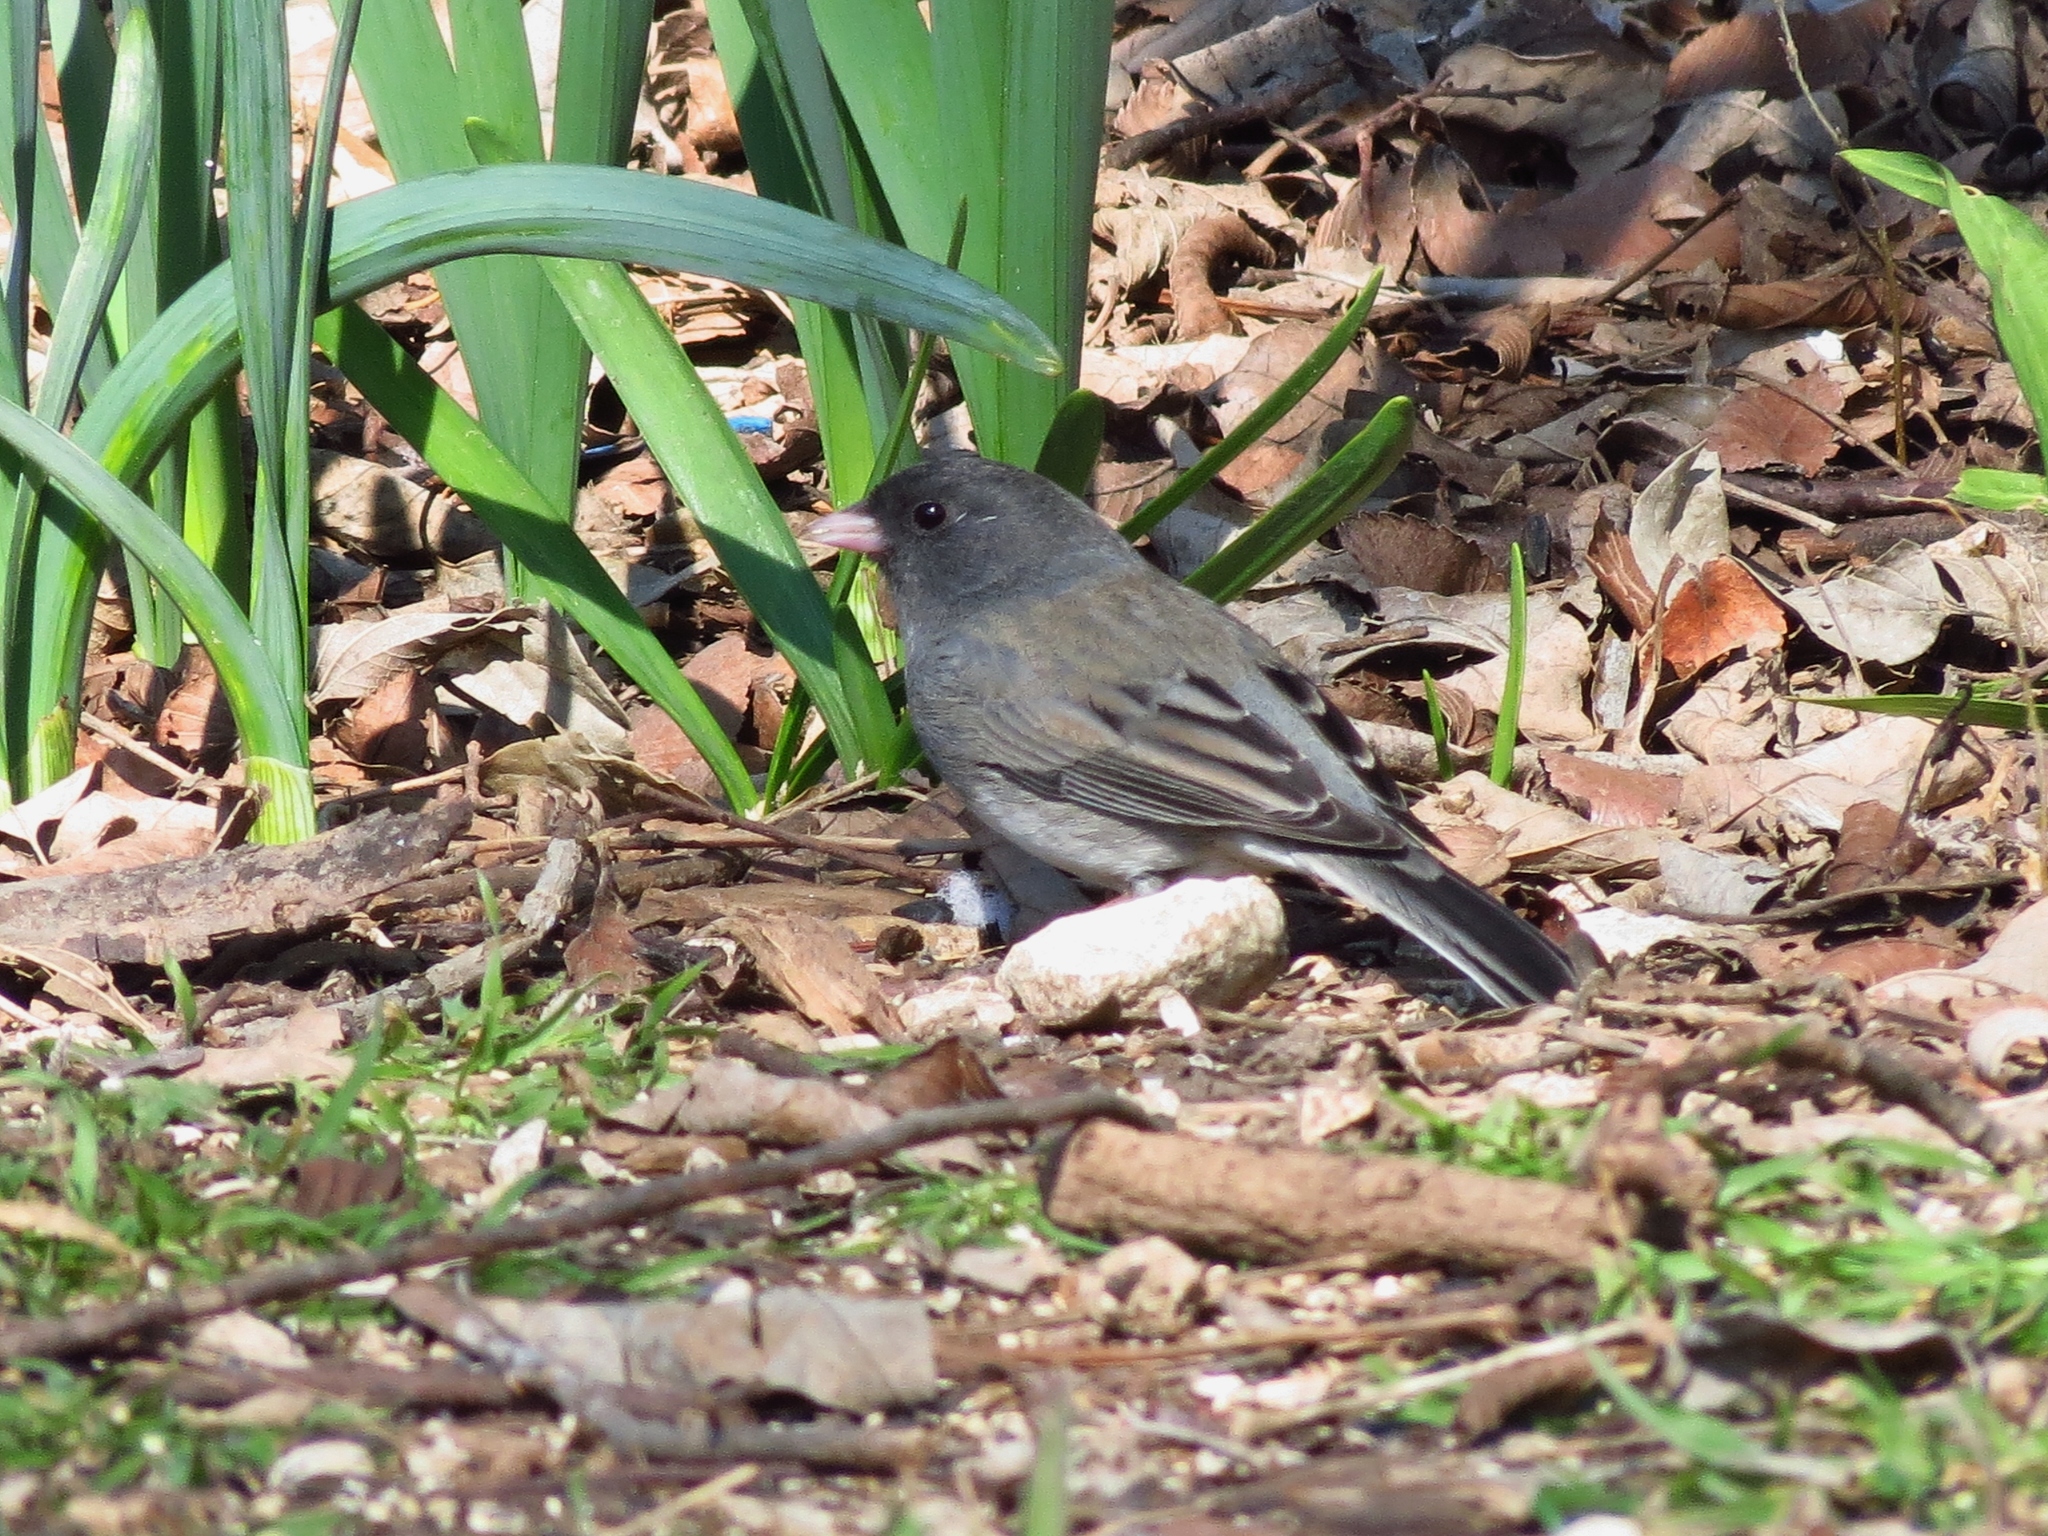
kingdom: Animalia
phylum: Chordata
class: Aves
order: Passeriformes
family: Passerellidae
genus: Junco
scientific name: Junco hyemalis
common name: Dark-eyed junco
